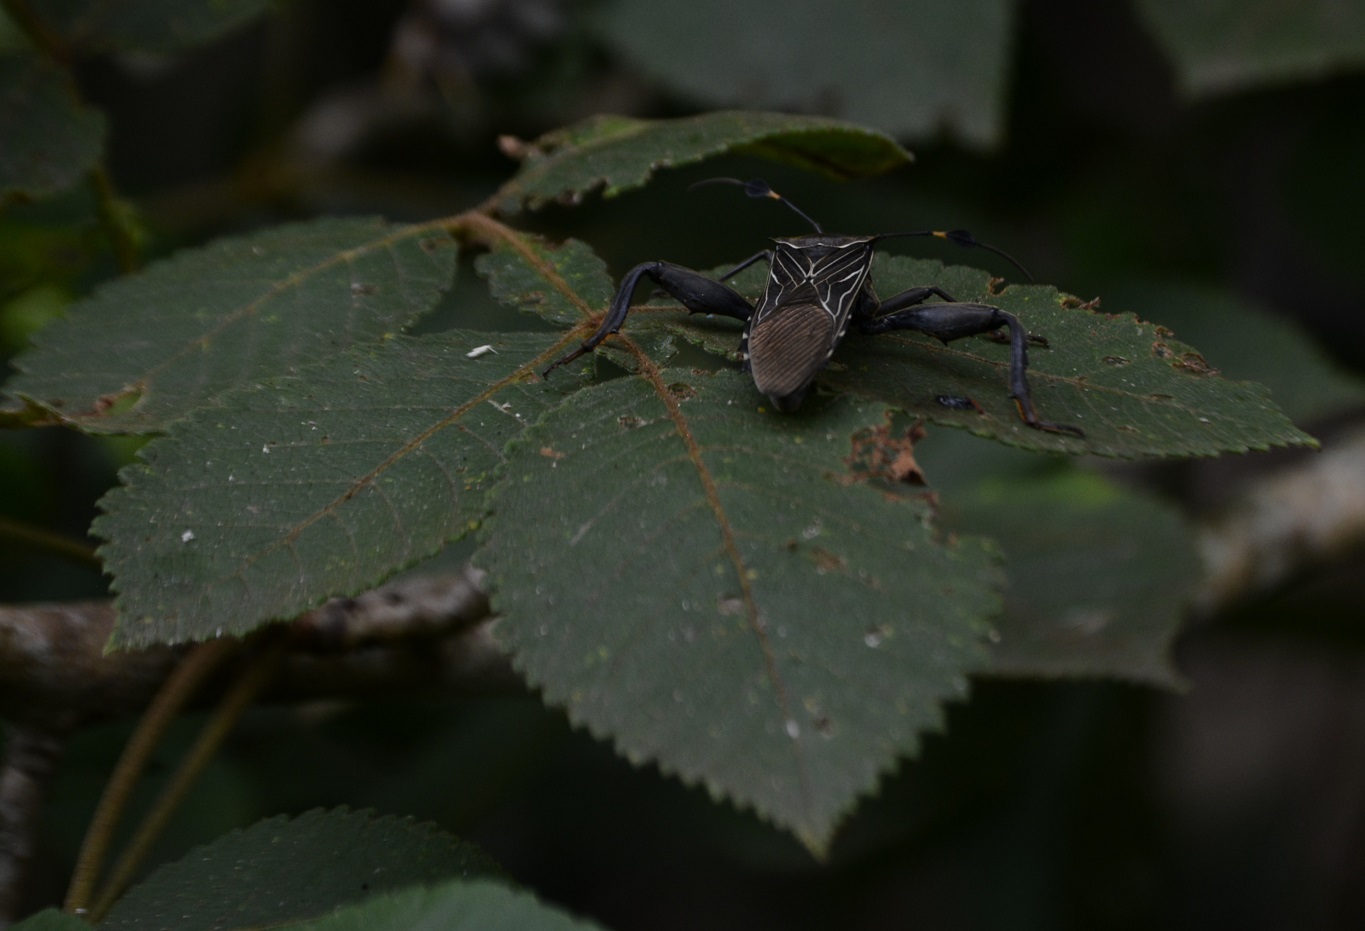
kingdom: Animalia
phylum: Arthropoda
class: Insecta
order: Hemiptera
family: Coreidae
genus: Thasus
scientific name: Thasus
